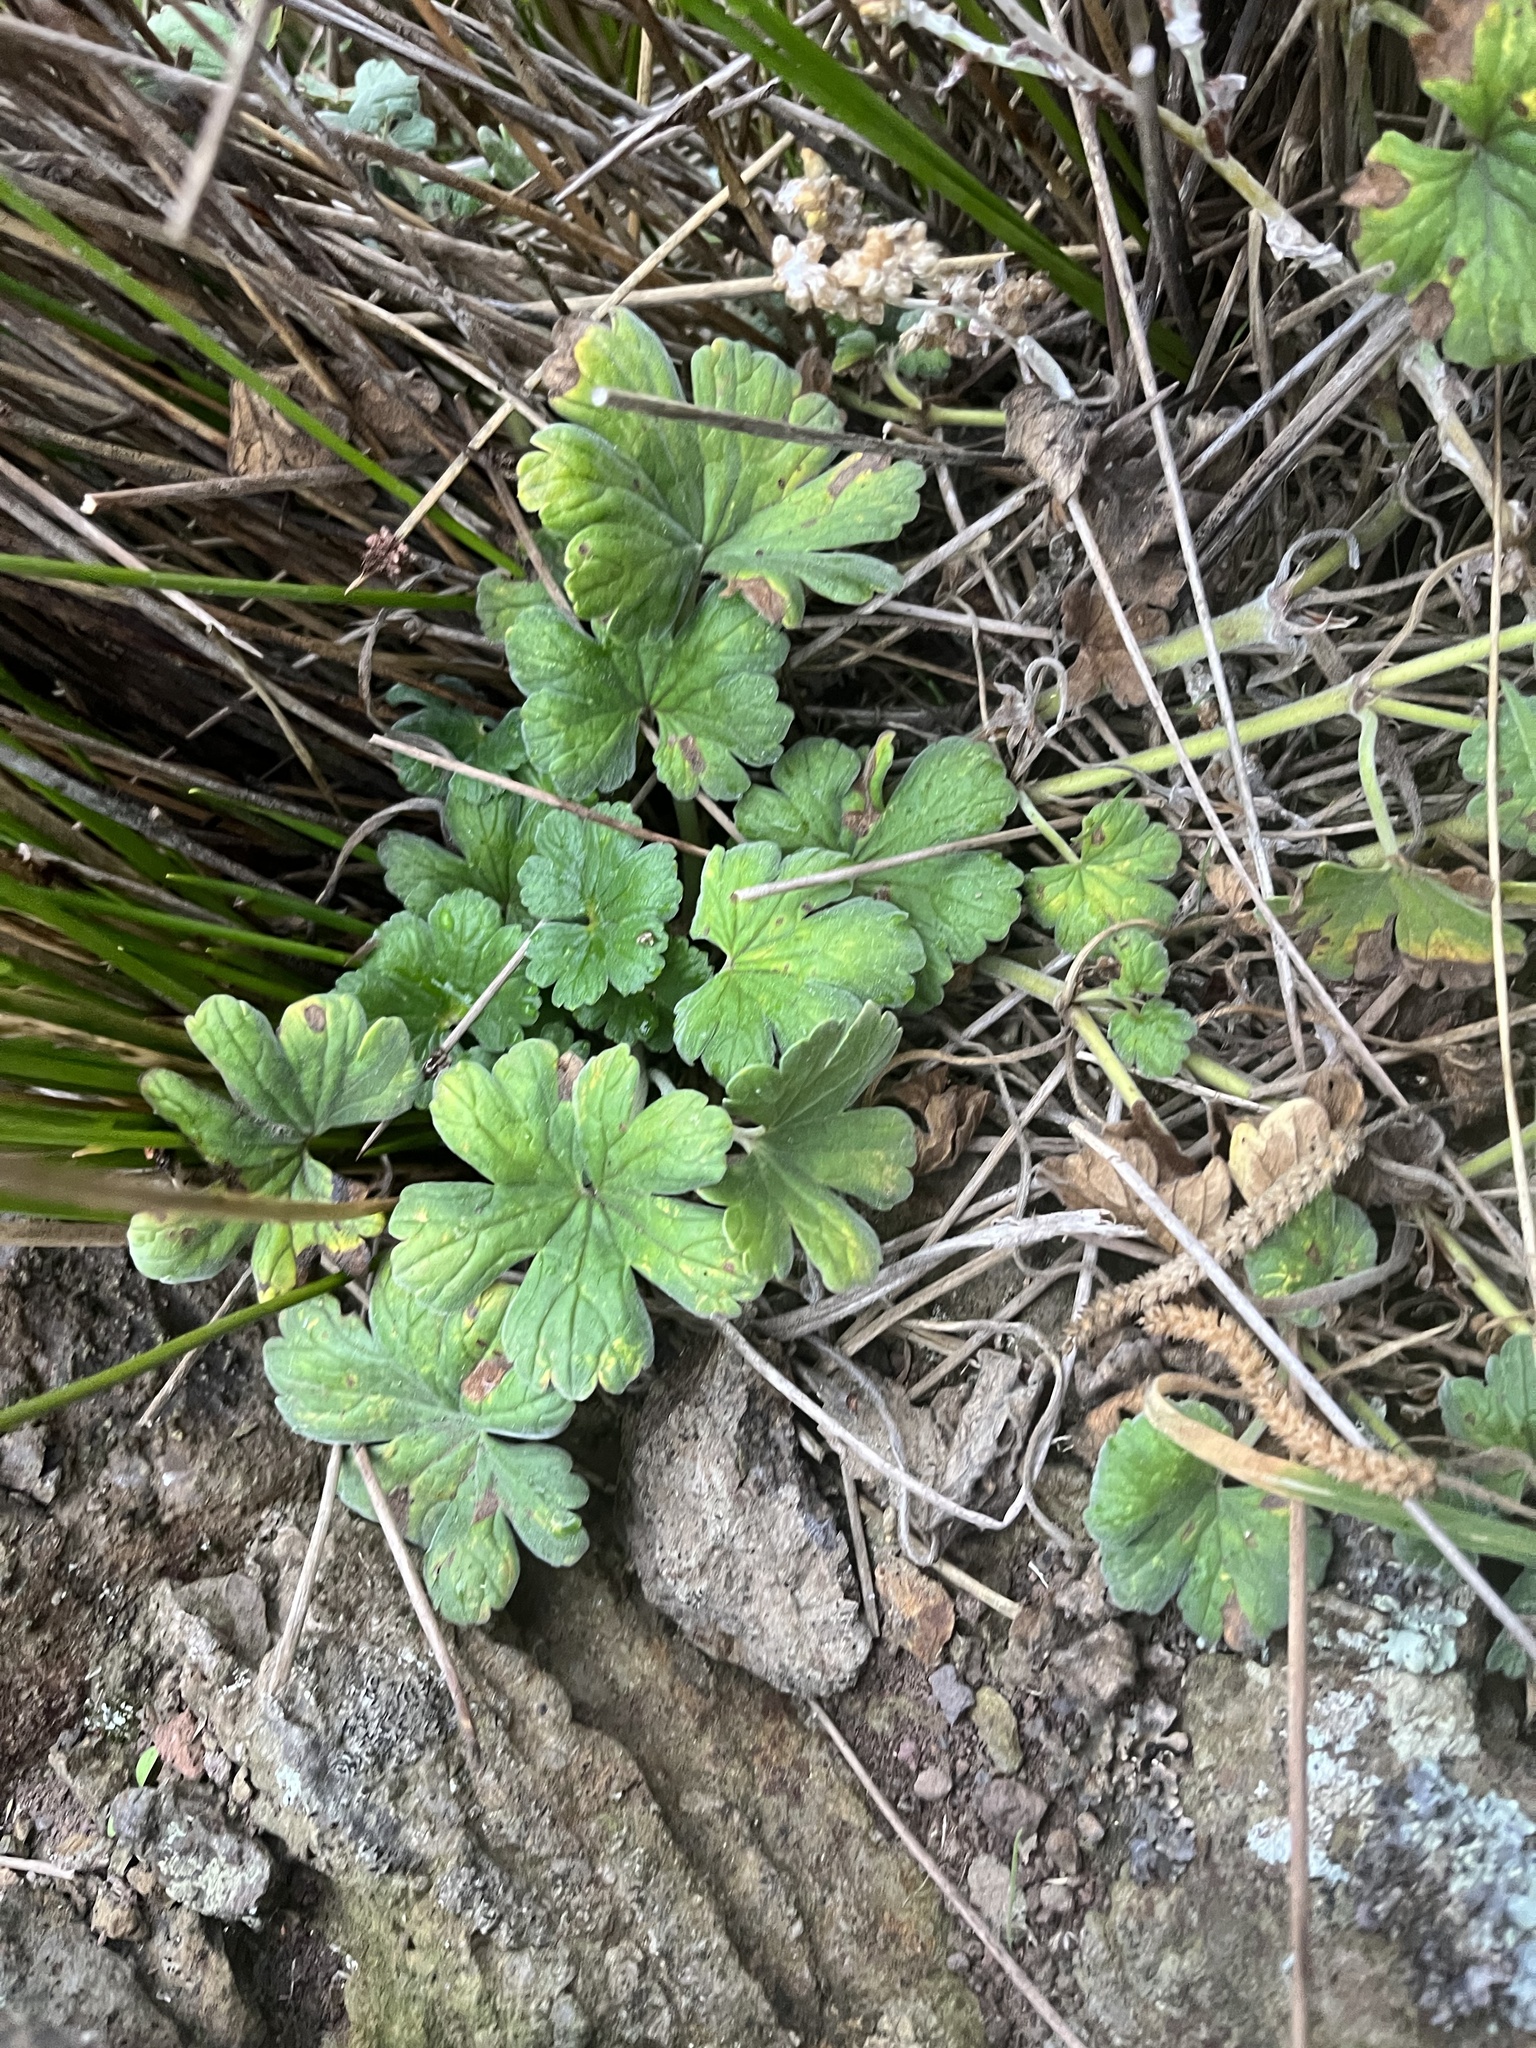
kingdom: Plantae
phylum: Tracheophyta
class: Magnoliopsida
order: Geraniales
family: Geraniaceae
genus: Geranium
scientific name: Geranium traversii
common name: Cranesbill
